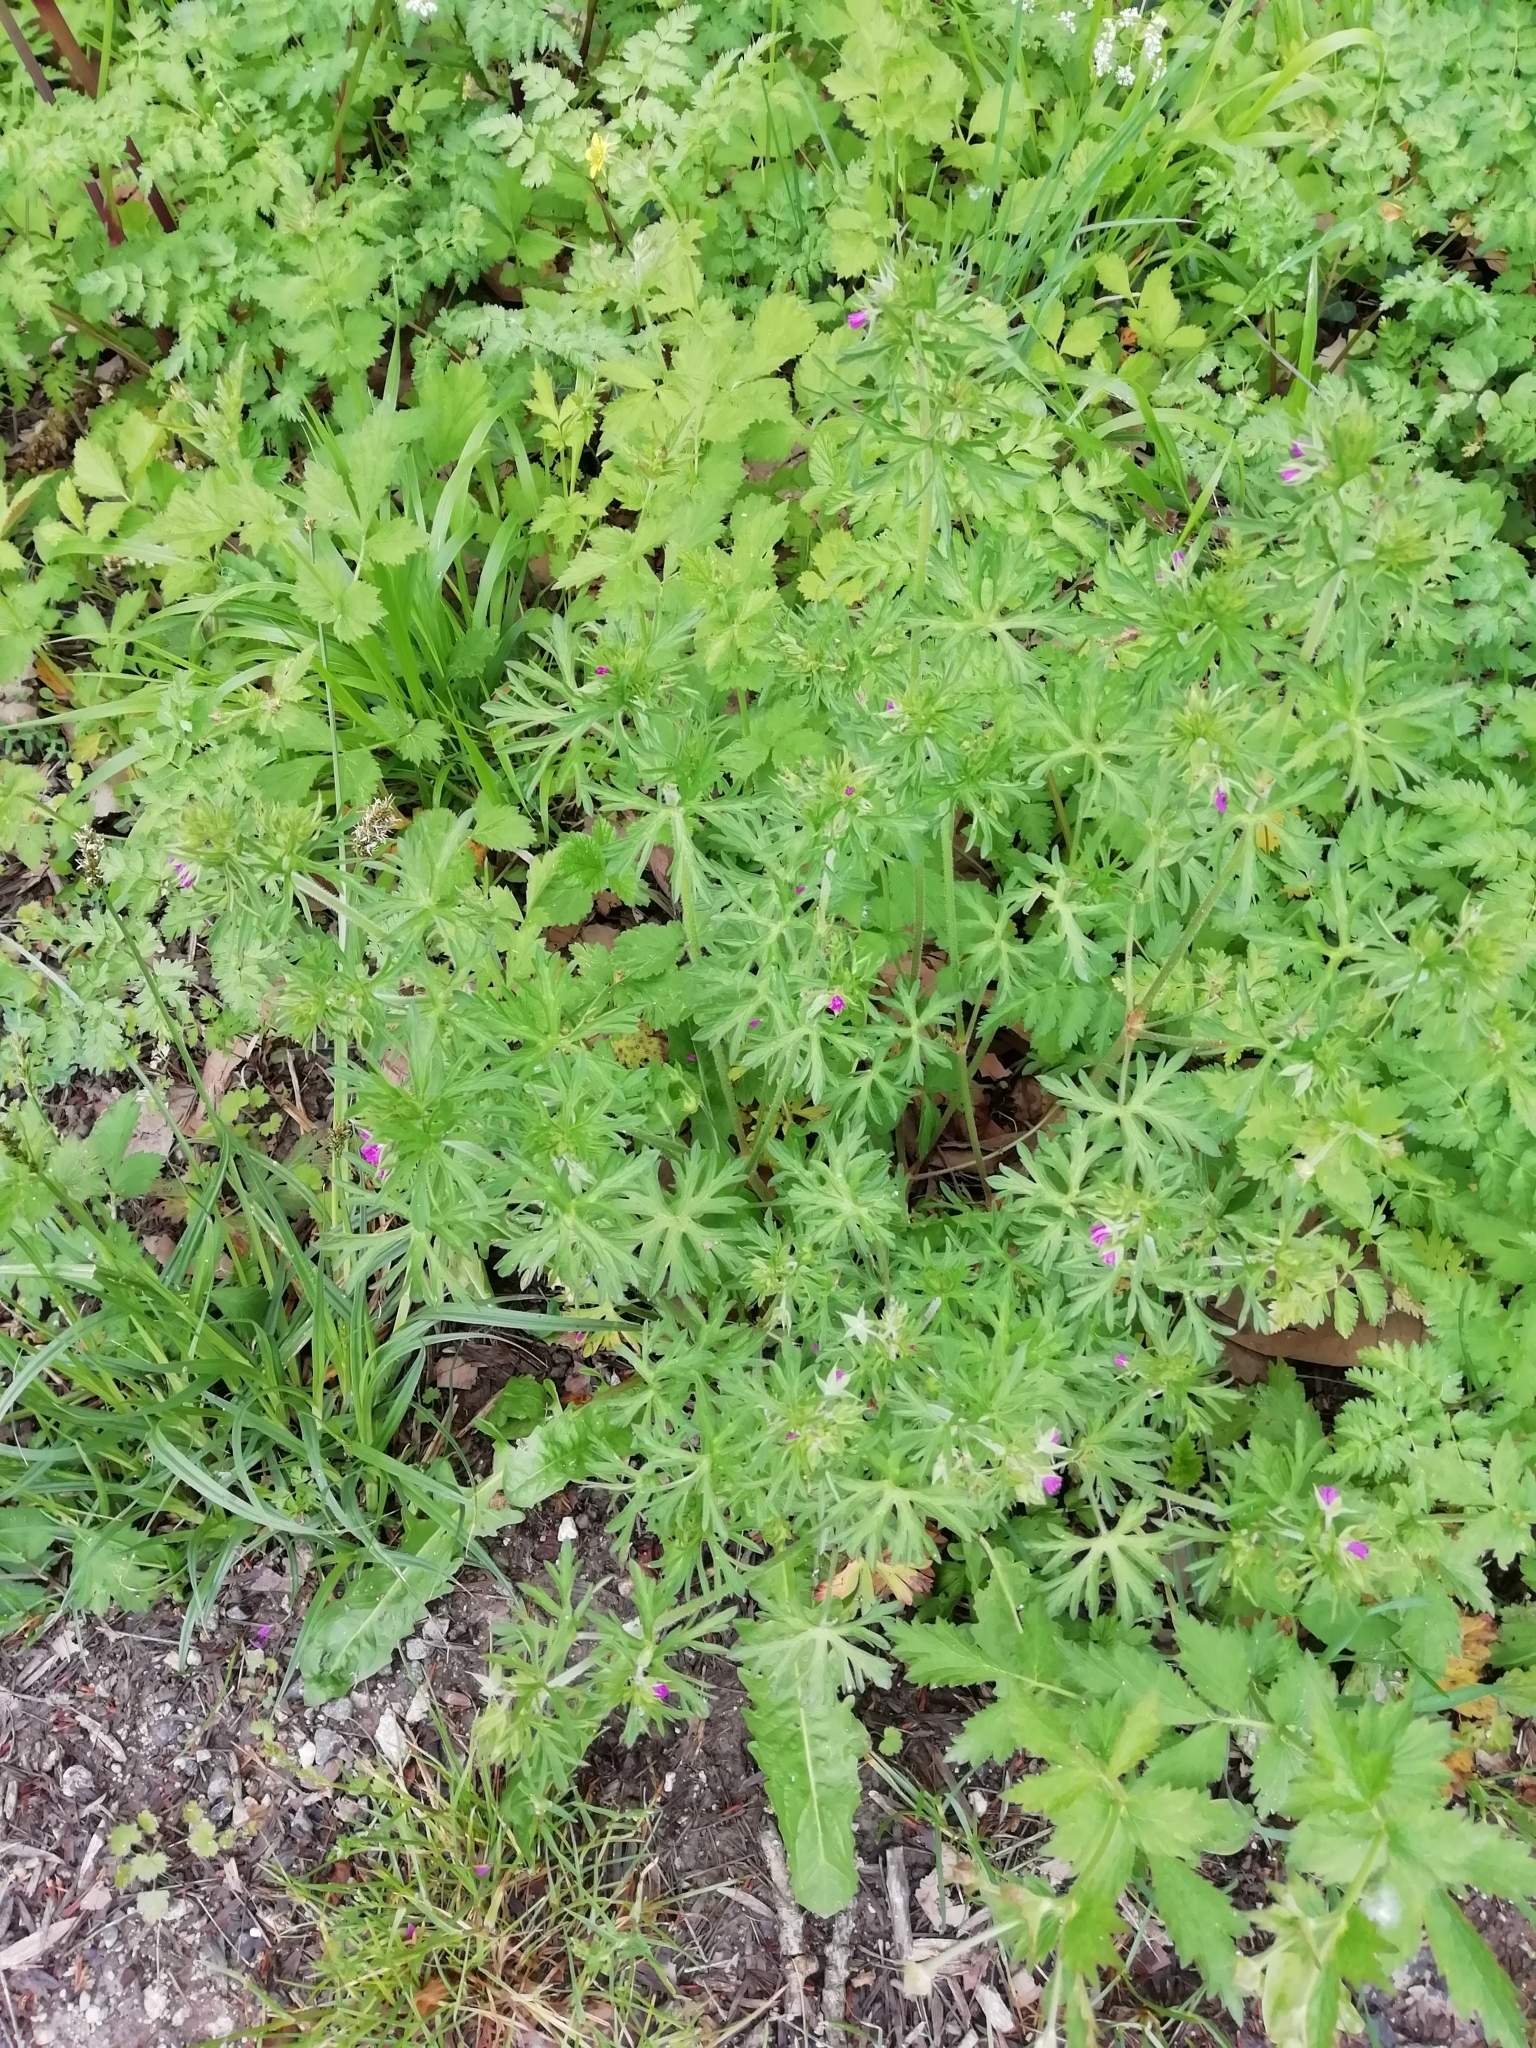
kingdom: Plantae
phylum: Tracheophyta
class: Magnoliopsida
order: Geraniales
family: Geraniaceae
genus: Geranium
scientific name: Geranium dissectum
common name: Cut-leaved crane's-bill
